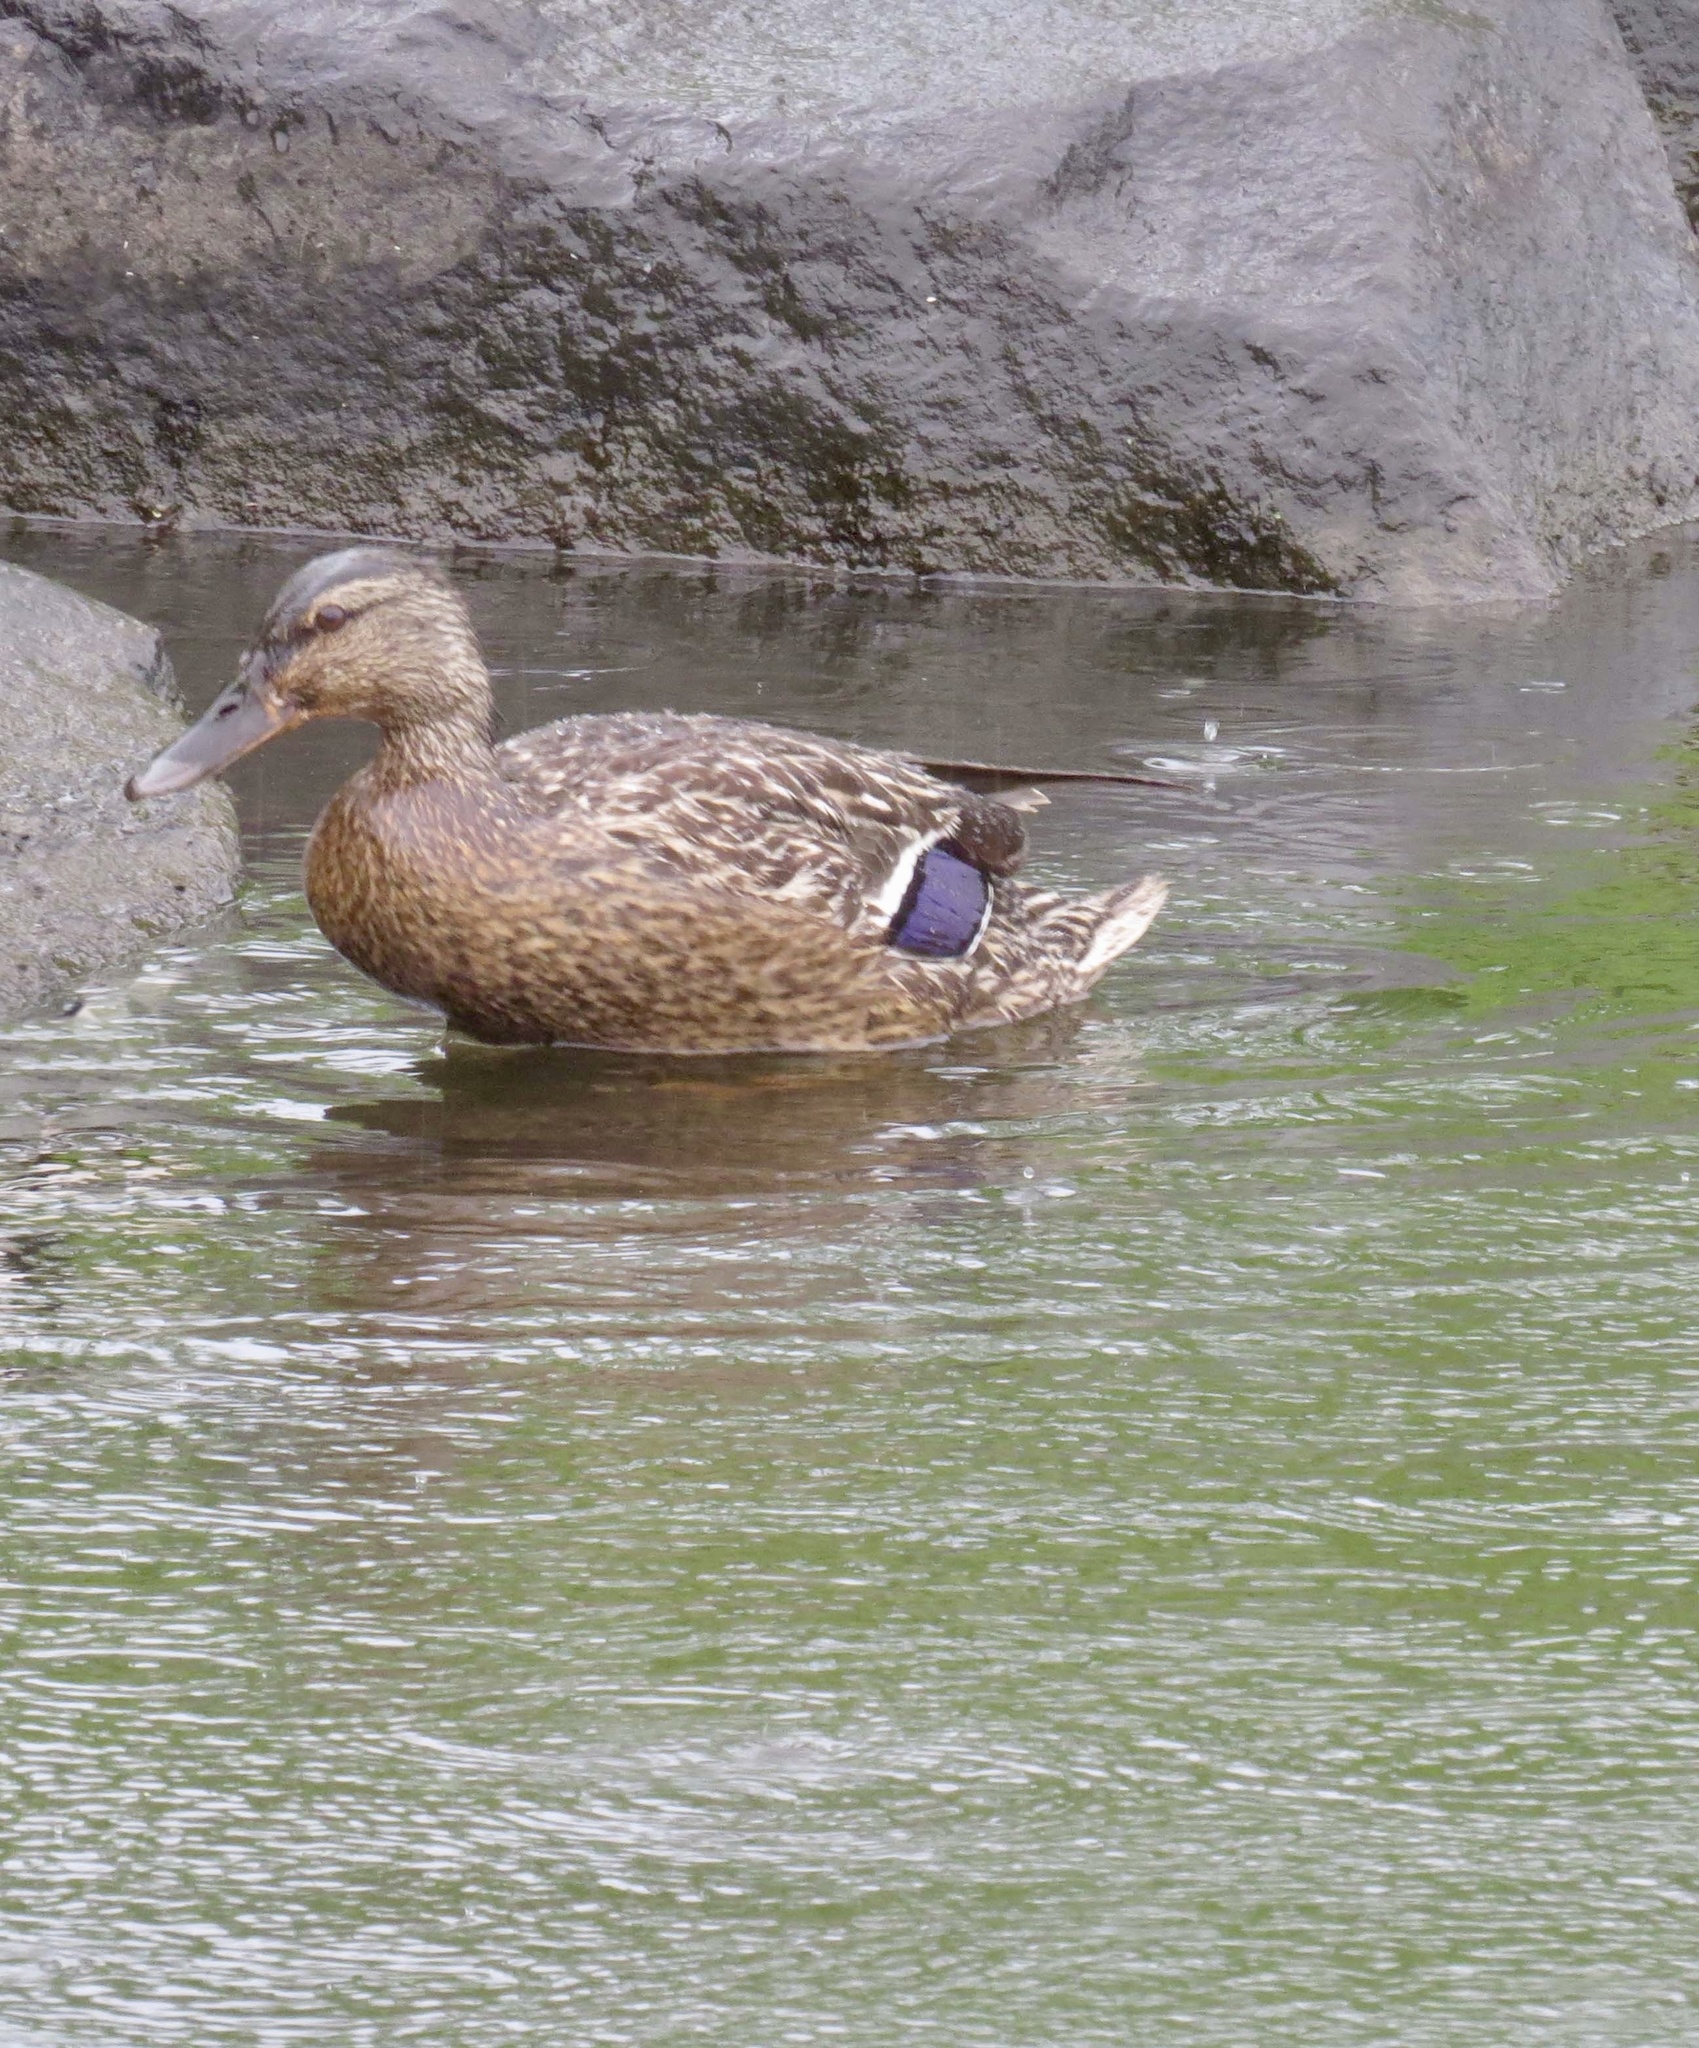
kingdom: Animalia
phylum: Chordata
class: Aves
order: Anseriformes
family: Anatidae
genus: Anas
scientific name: Anas platyrhynchos
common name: Mallard
